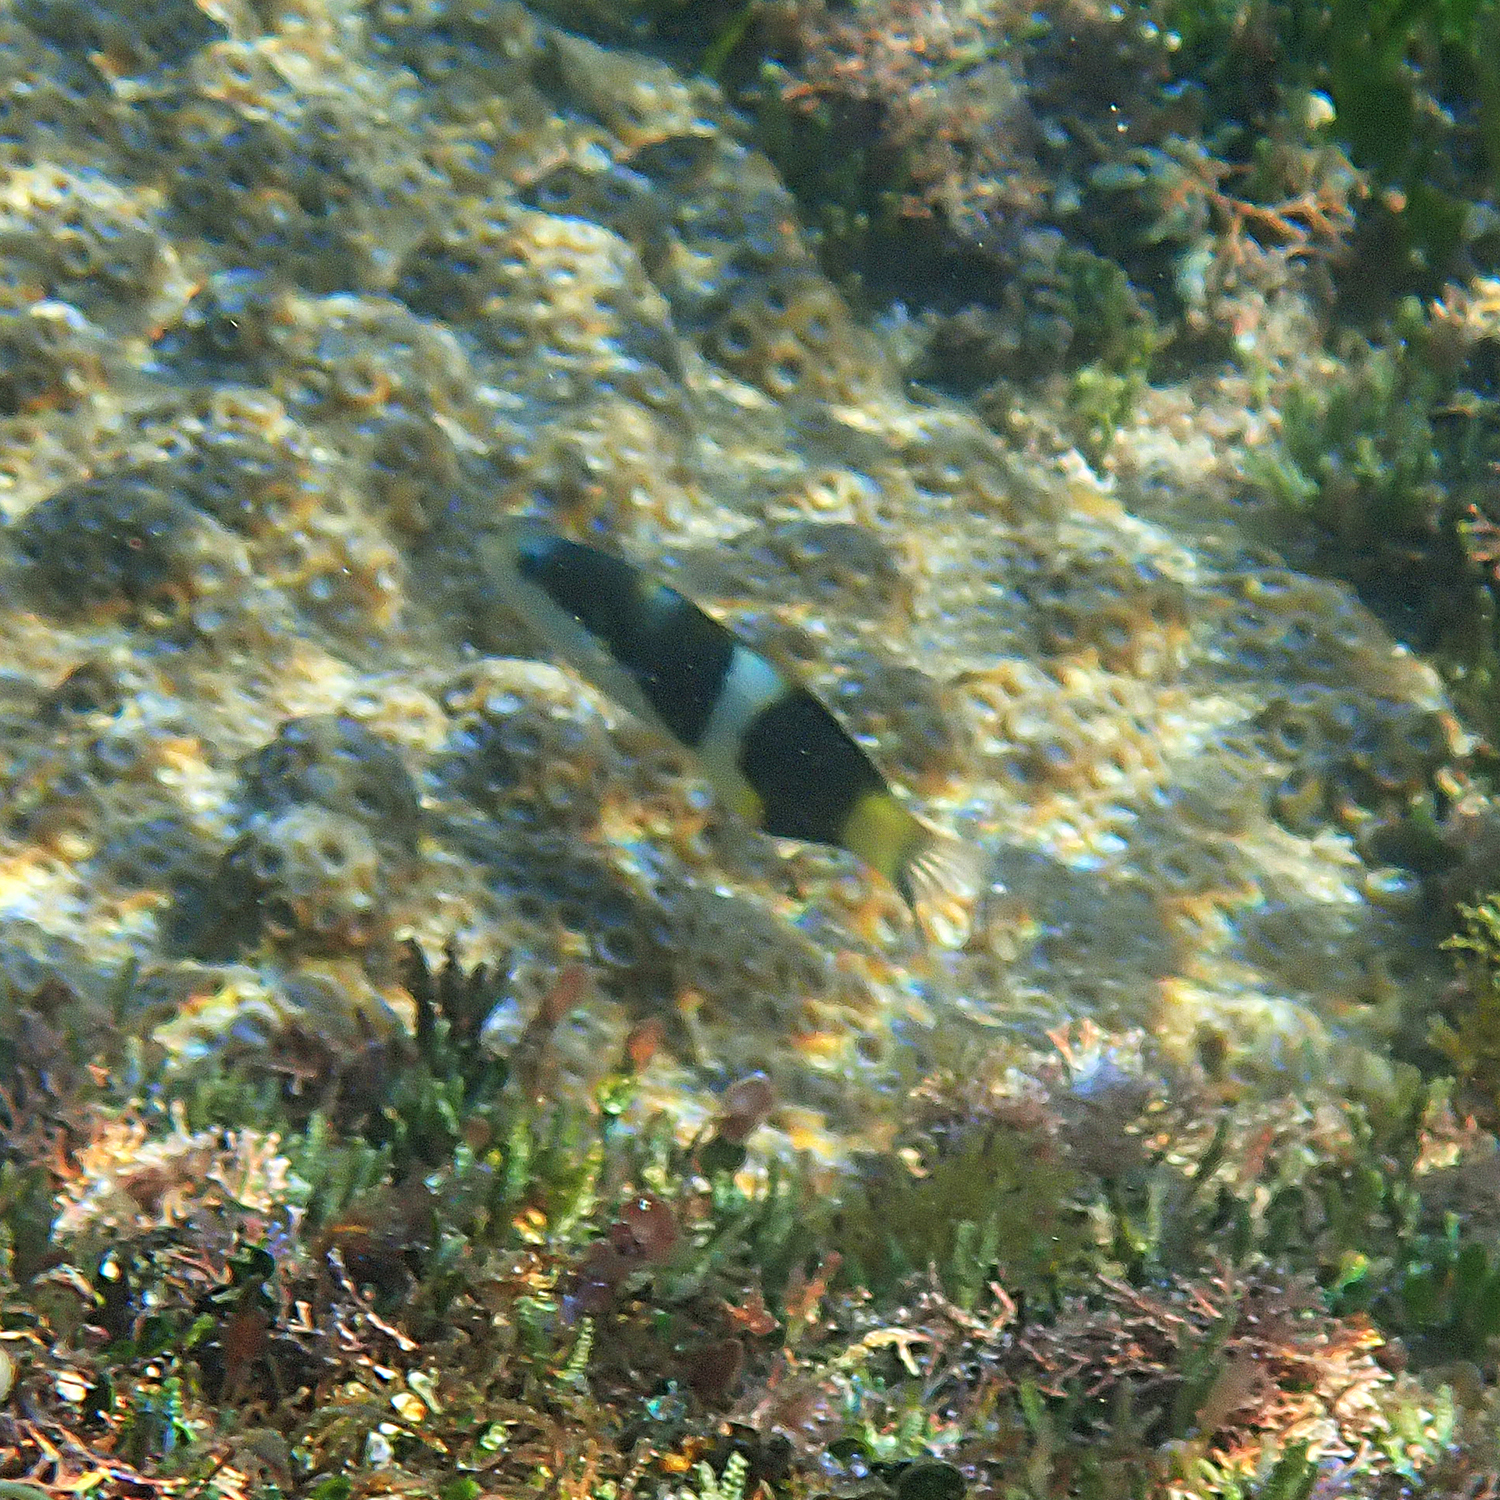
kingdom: Animalia
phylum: Chordata
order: Perciformes
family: Labridae
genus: Thalassoma
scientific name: Thalassoma nigrofasciatum
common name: Black-barred wrasse
